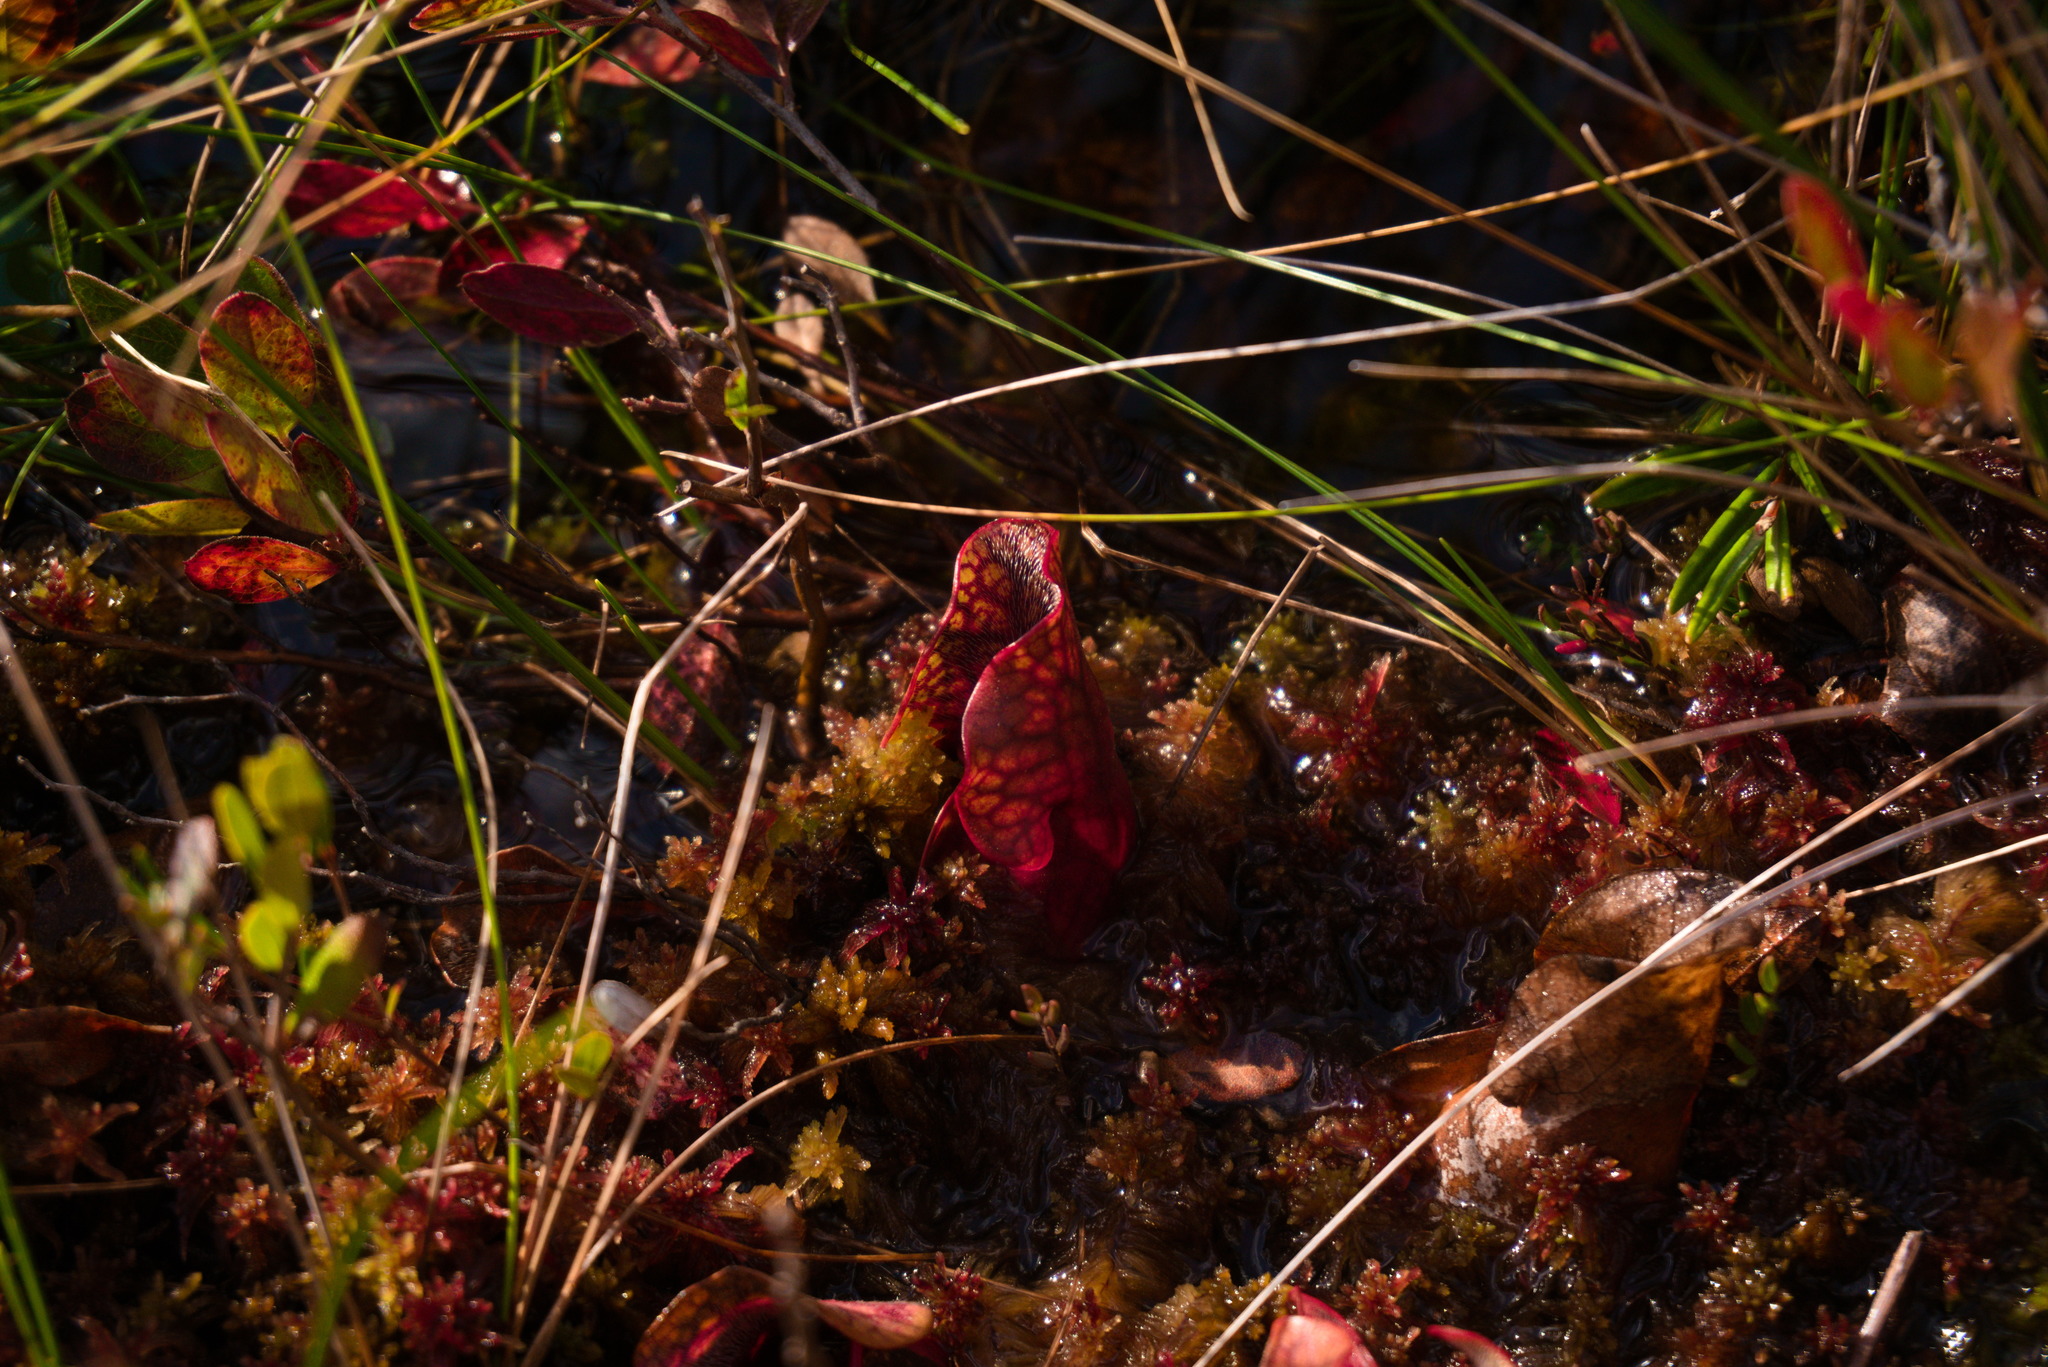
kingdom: Plantae
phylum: Tracheophyta
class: Magnoliopsida
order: Ericales
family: Sarraceniaceae
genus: Sarracenia
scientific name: Sarracenia purpurea
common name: Pitcherplant
